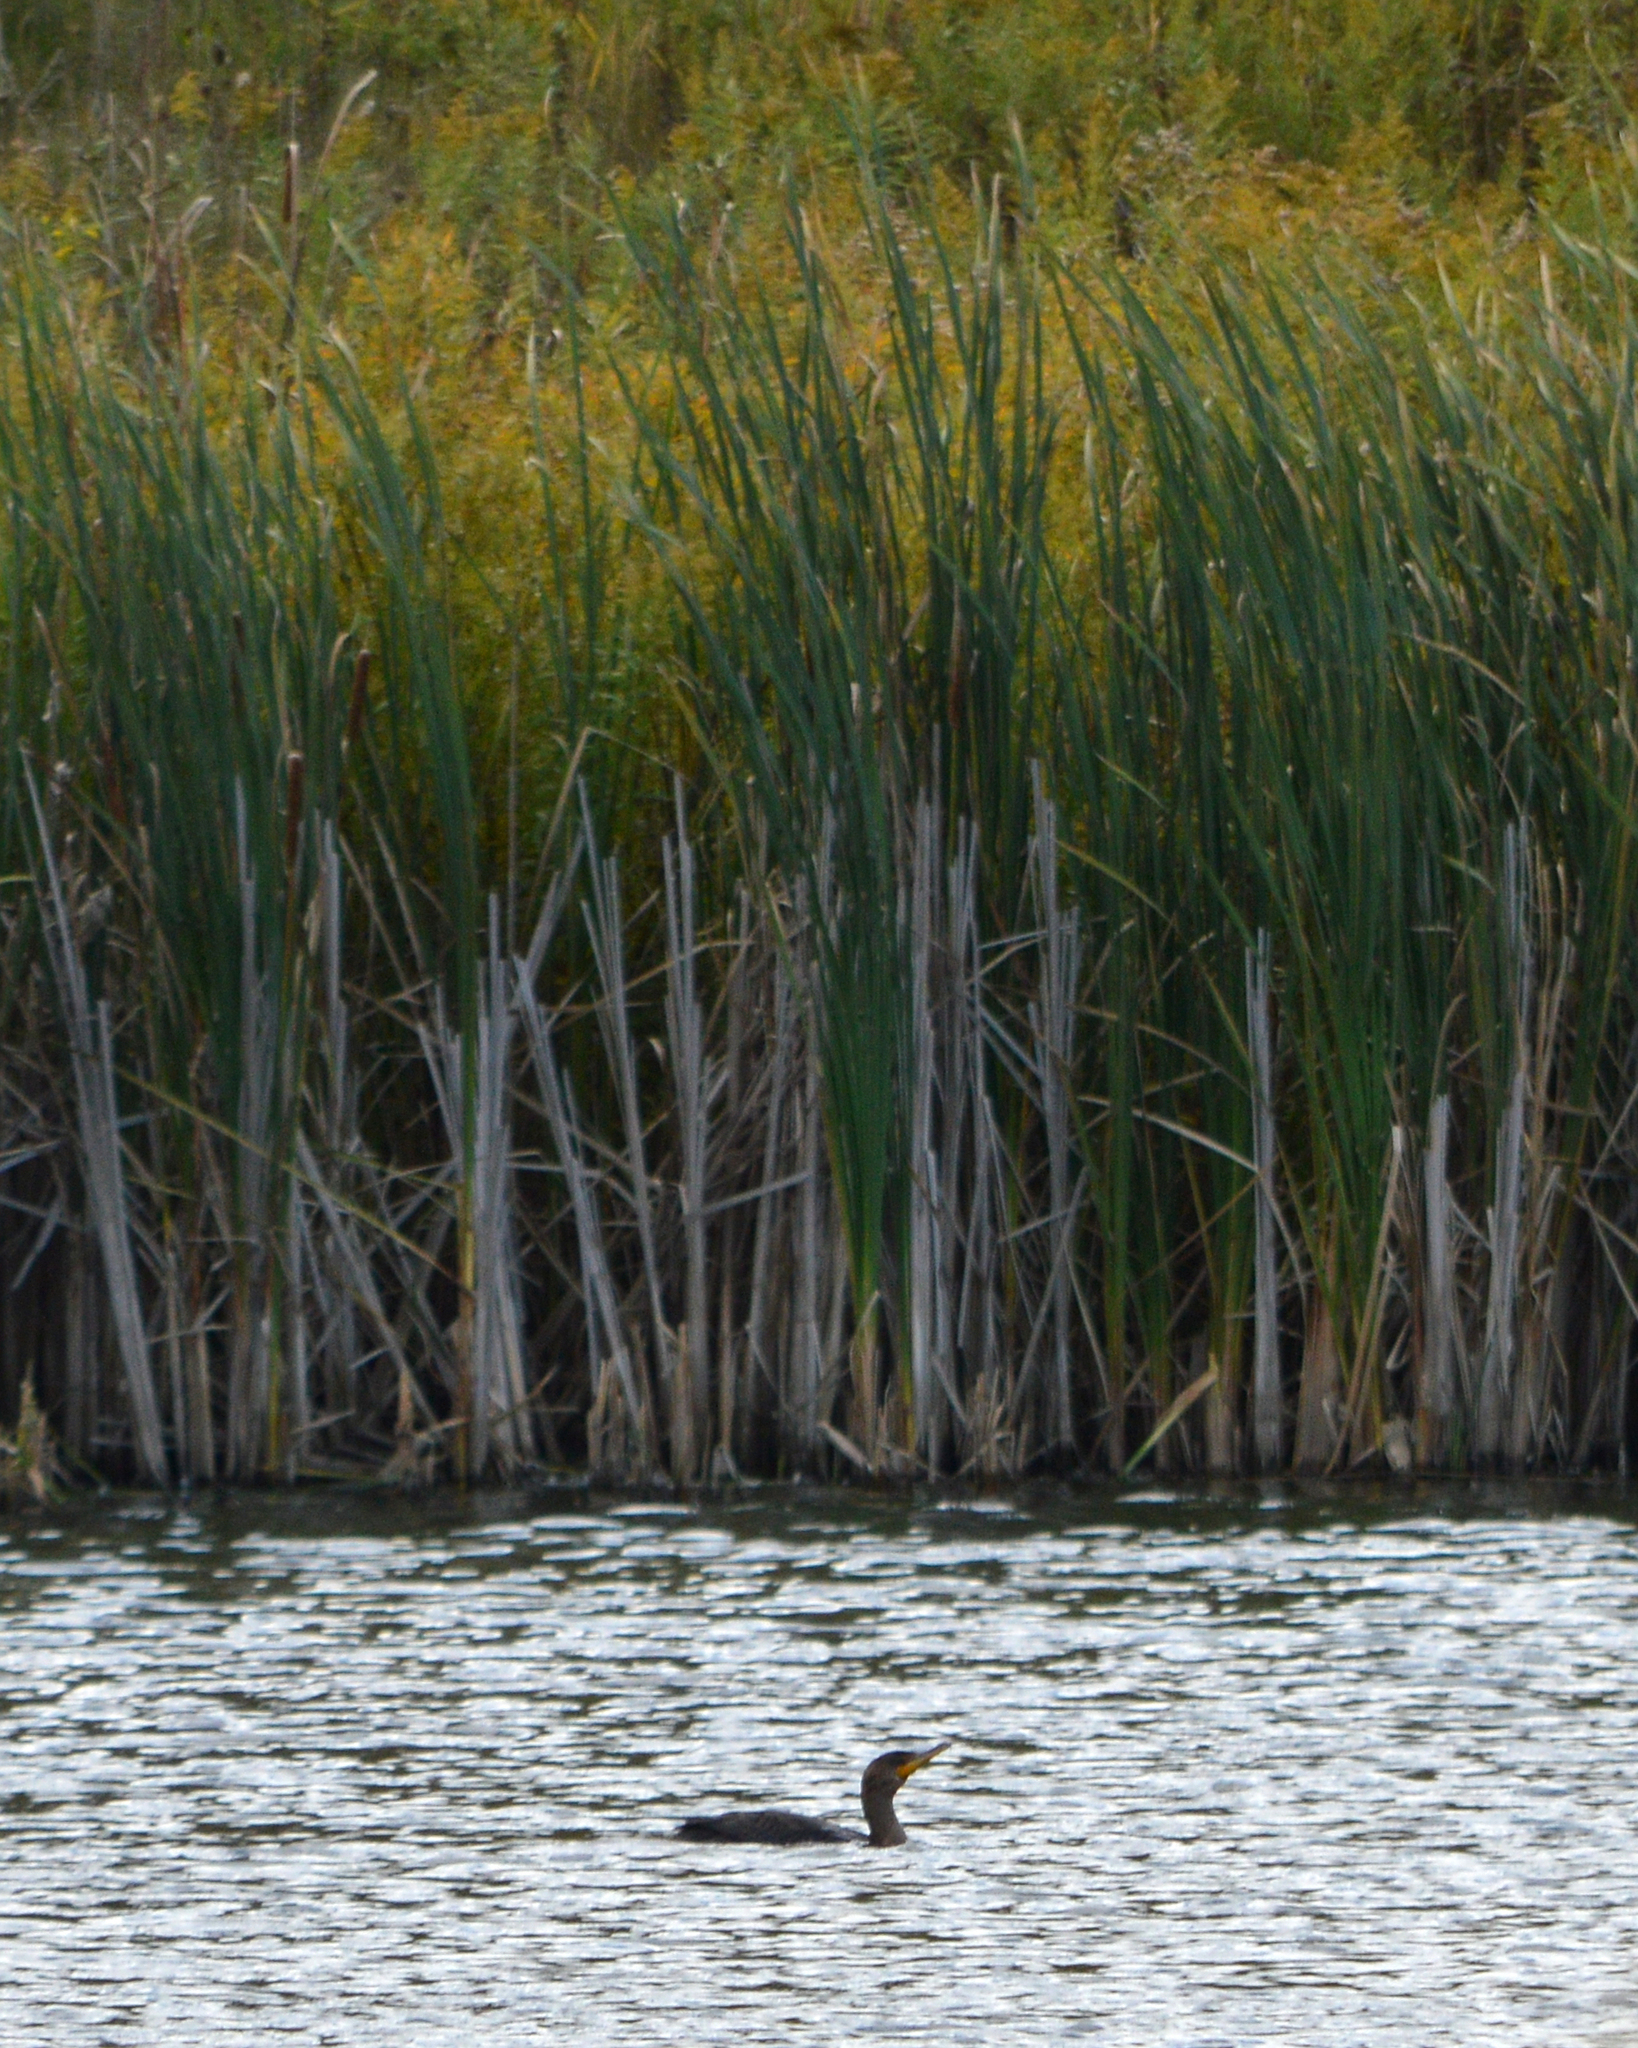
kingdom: Animalia
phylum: Chordata
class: Aves
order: Suliformes
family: Phalacrocoracidae
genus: Phalacrocorax
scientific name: Phalacrocorax auritus
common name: Double-crested cormorant
